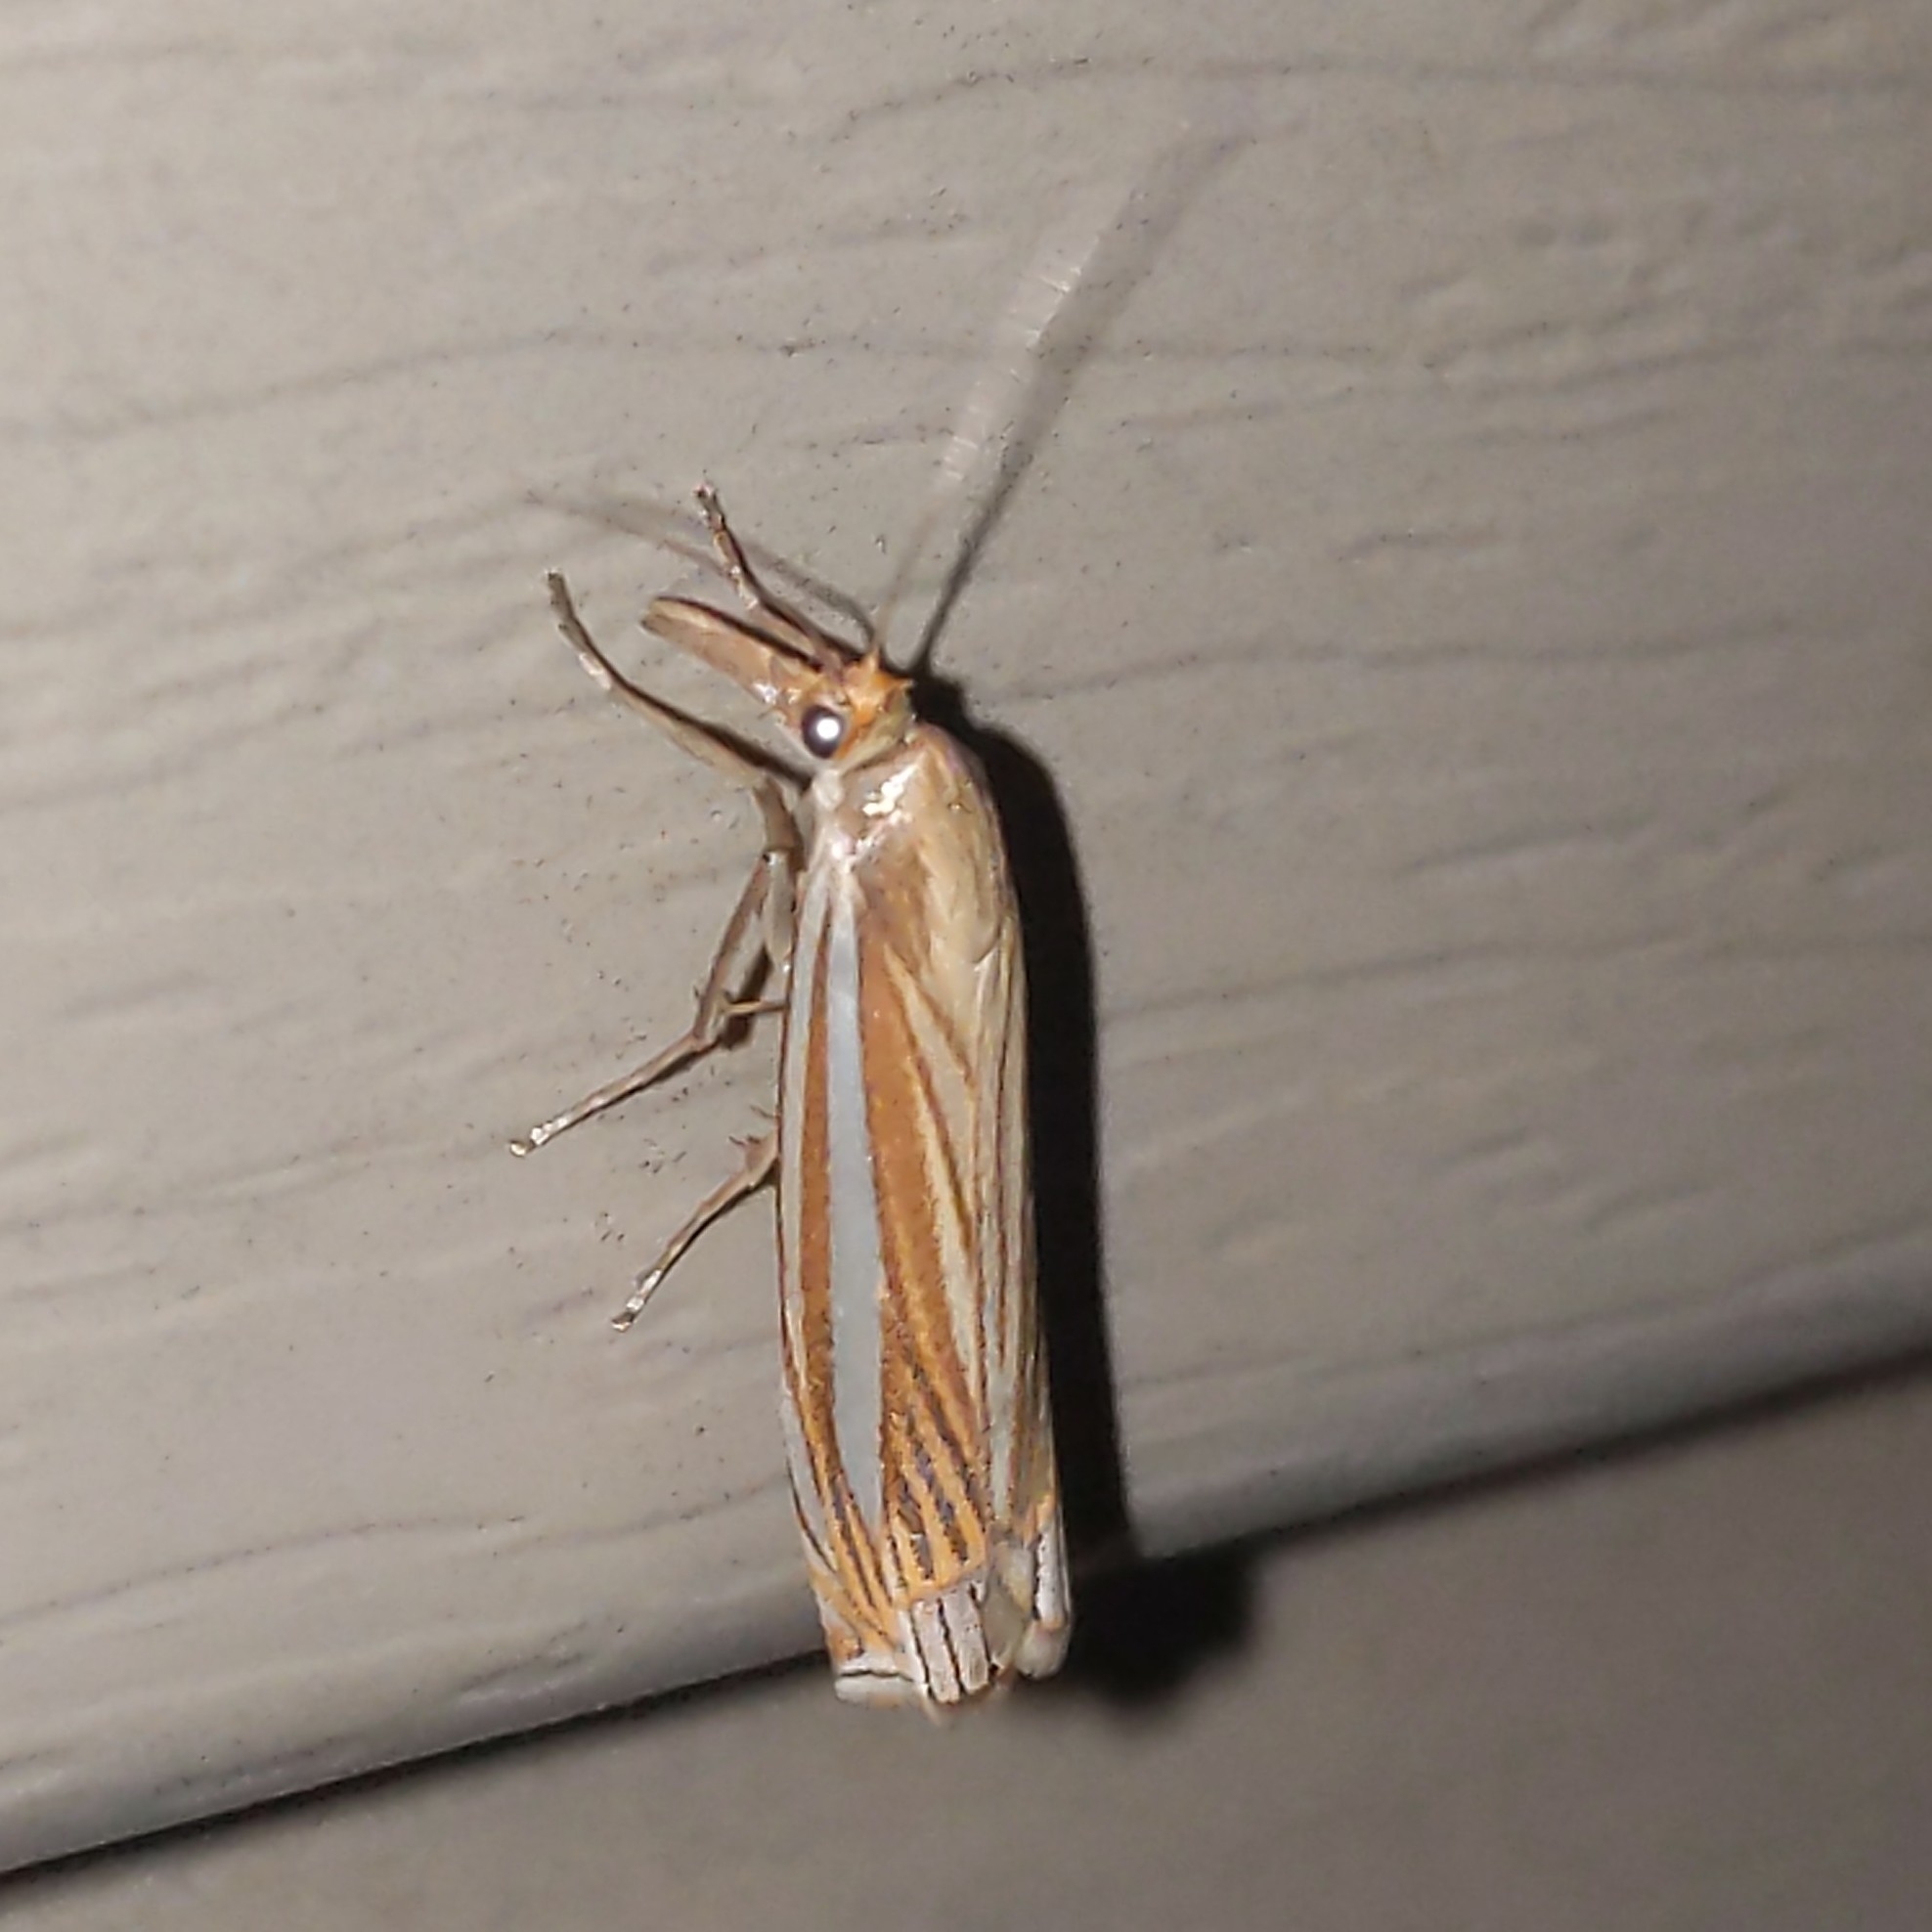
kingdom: Animalia
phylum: Arthropoda
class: Insecta
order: Lepidoptera
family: Crambidae
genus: Crambus
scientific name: Crambus laqueatellus
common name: Eastern grass-veneer
